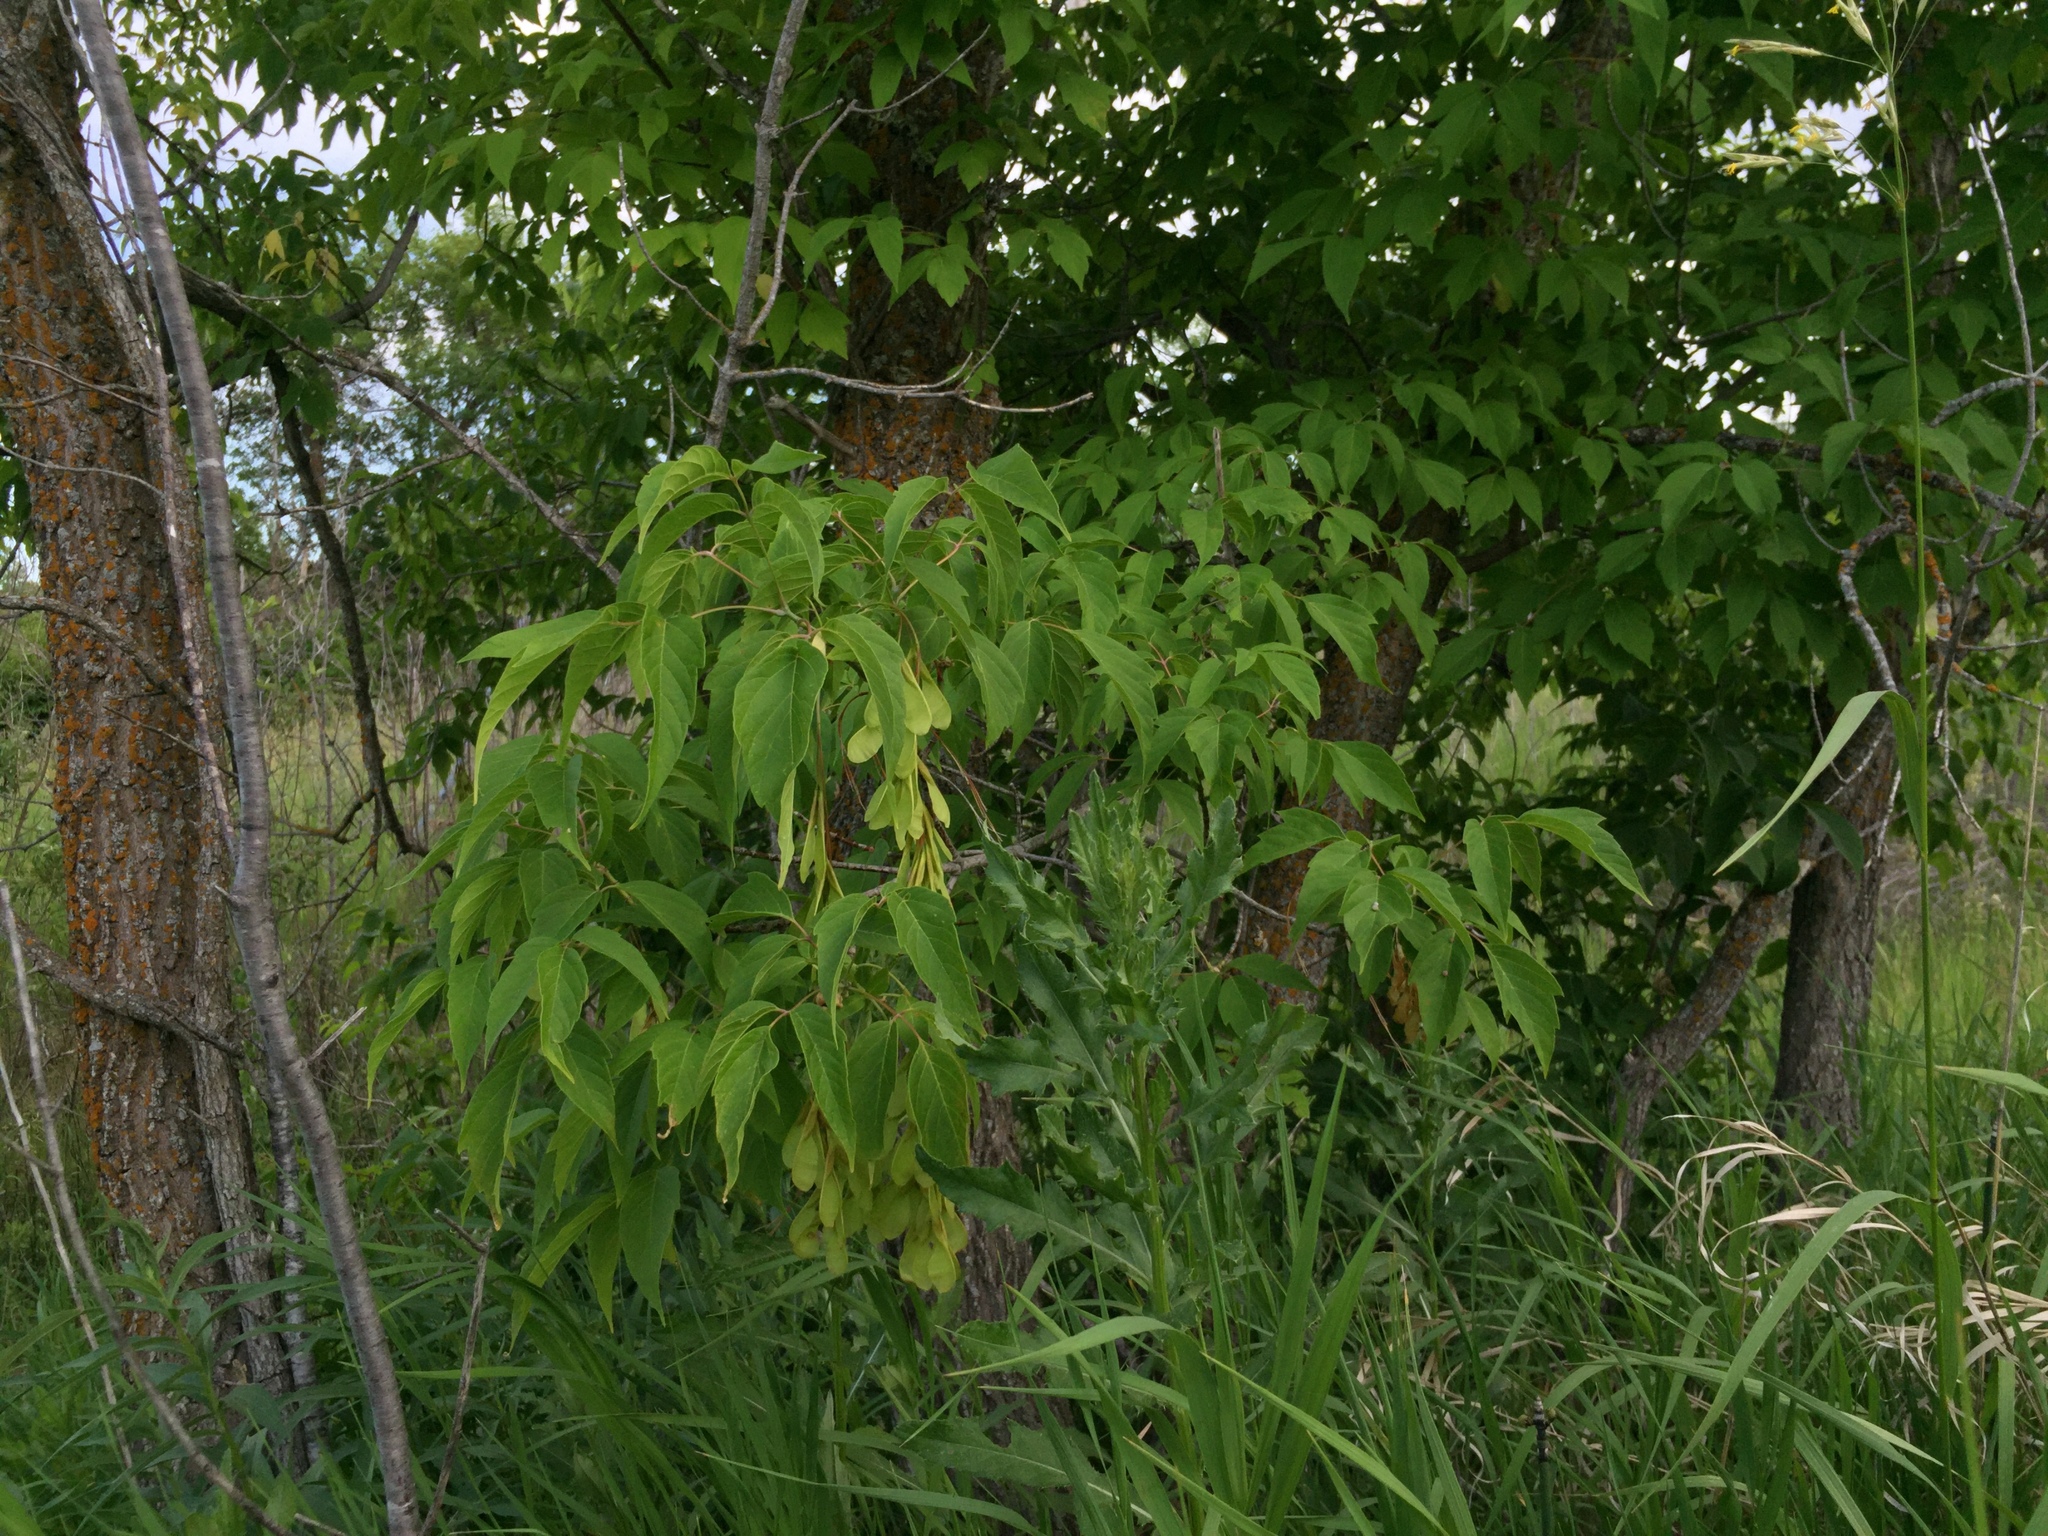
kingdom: Plantae
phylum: Tracheophyta
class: Magnoliopsida
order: Sapindales
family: Sapindaceae
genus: Acer
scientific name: Acer negundo
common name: Ashleaf maple
